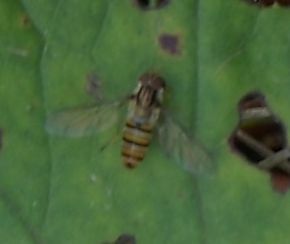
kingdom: Animalia
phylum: Arthropoda
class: Insecta
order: Diptera
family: Syrphidae
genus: Episyrphus
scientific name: Episyrphus balteatus
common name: Marmalade hoverfly
